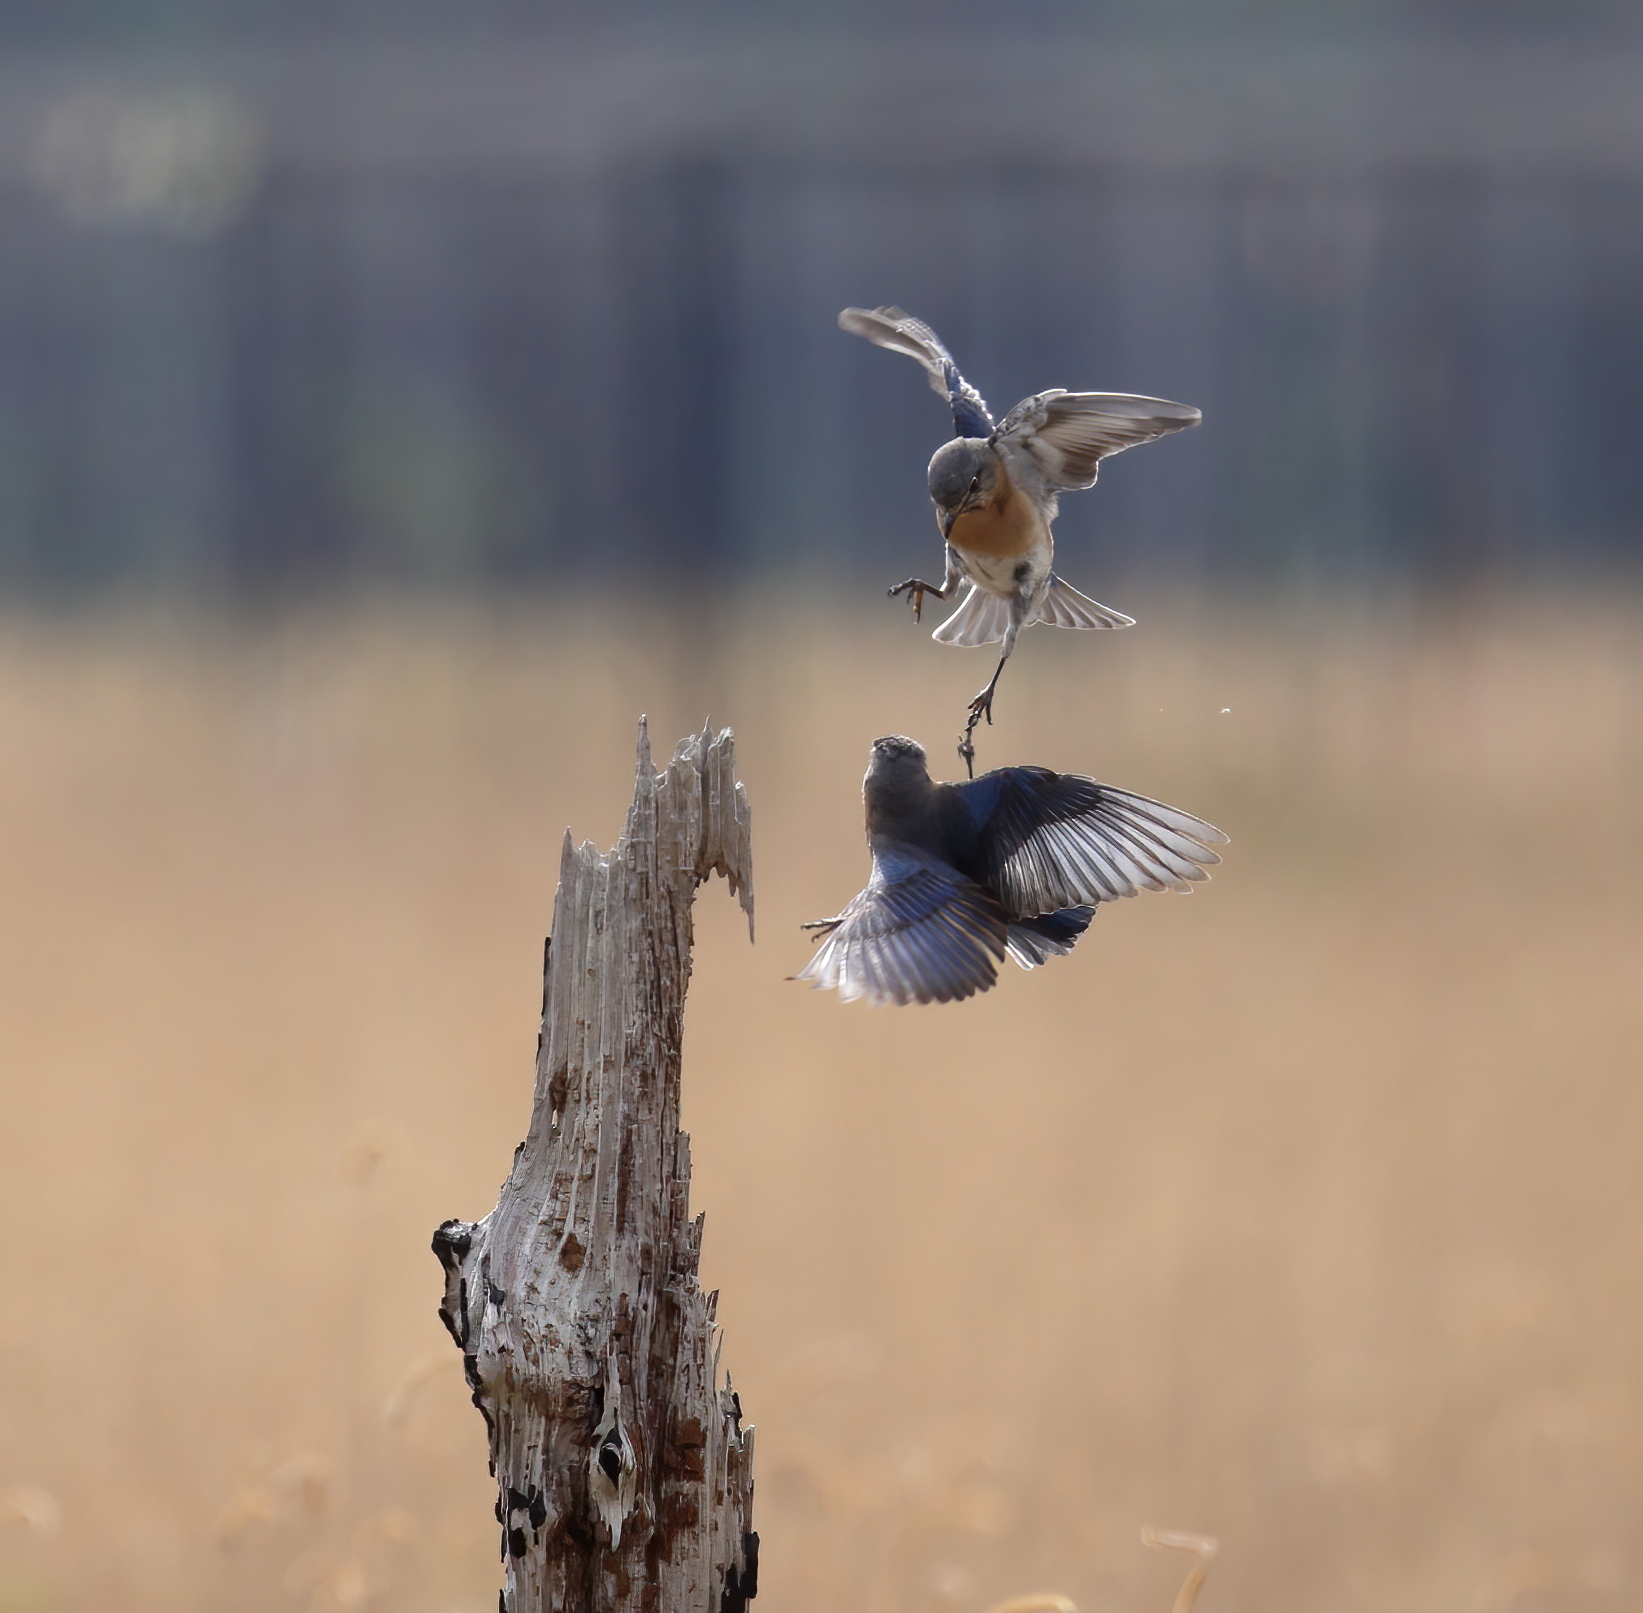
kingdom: Animalia
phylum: Chordata
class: Aves
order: Passeriformes
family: Turdidae
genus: Sialia
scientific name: Sialia sialis
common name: Eastern bluebird
